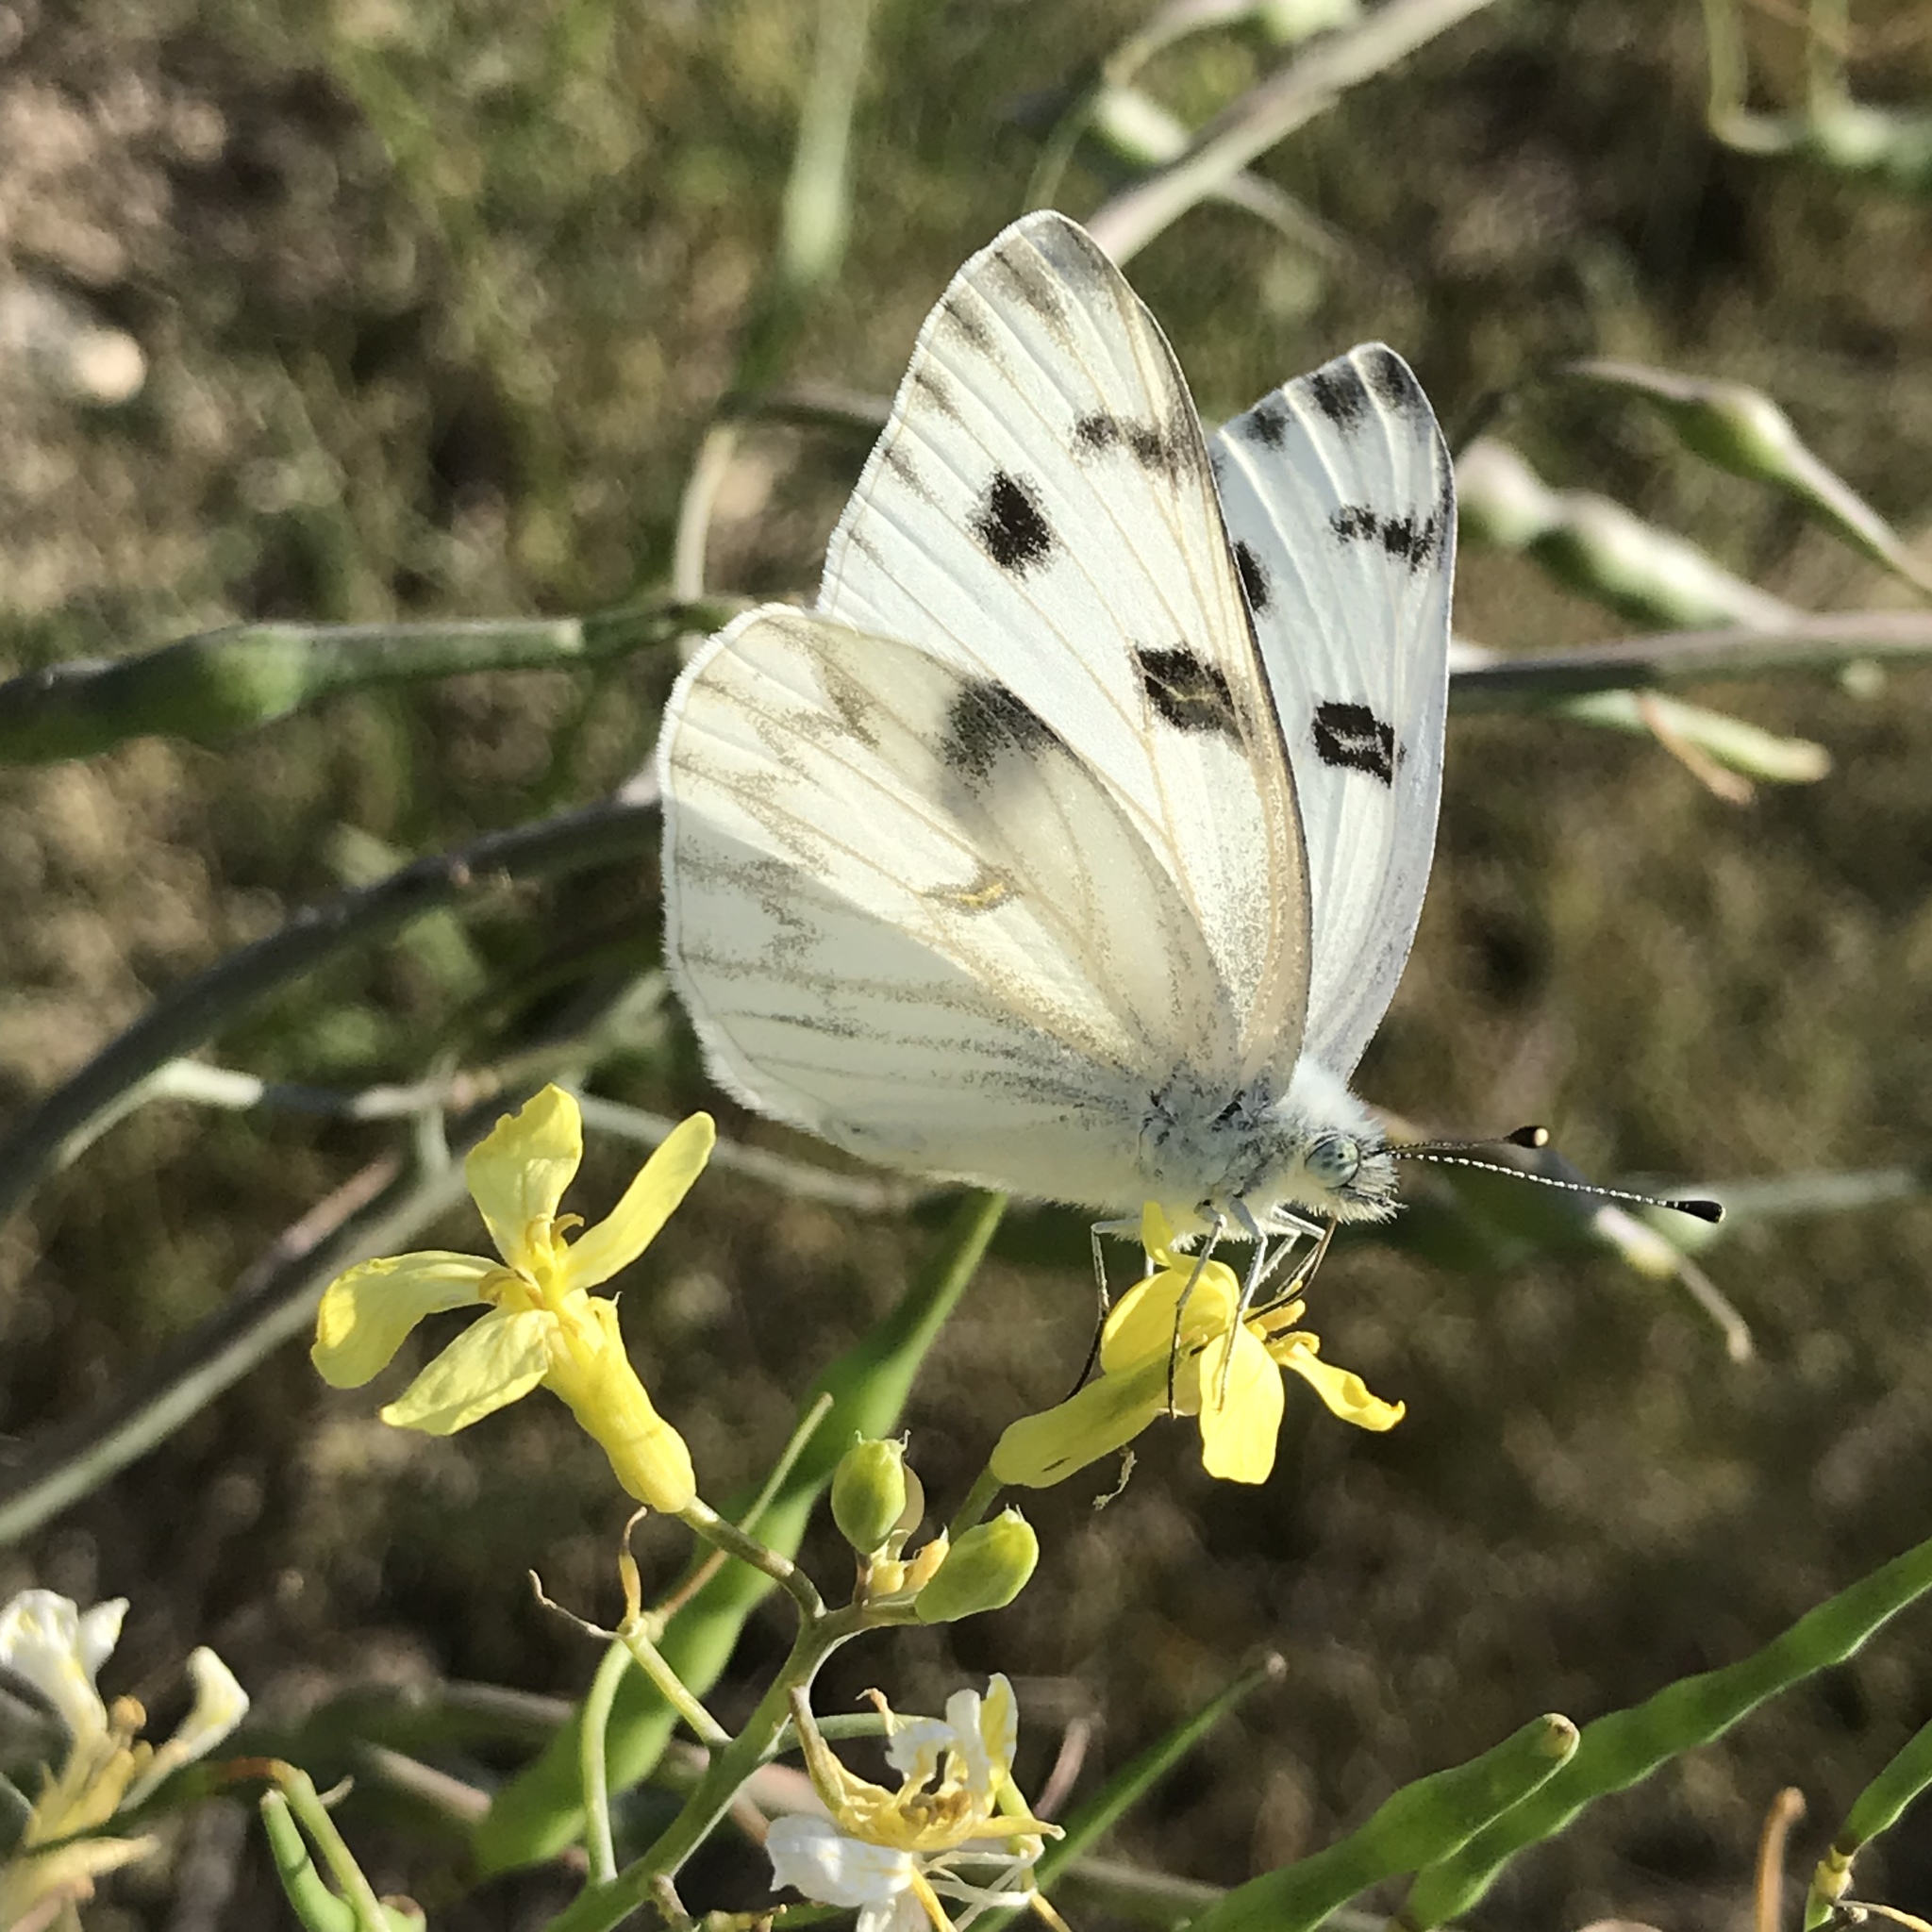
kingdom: Animalia
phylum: Arthropoda
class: Insecta
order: Lepidoptera
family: Pieridae
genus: Pontia
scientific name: Pontia protodice
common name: Checkered white
